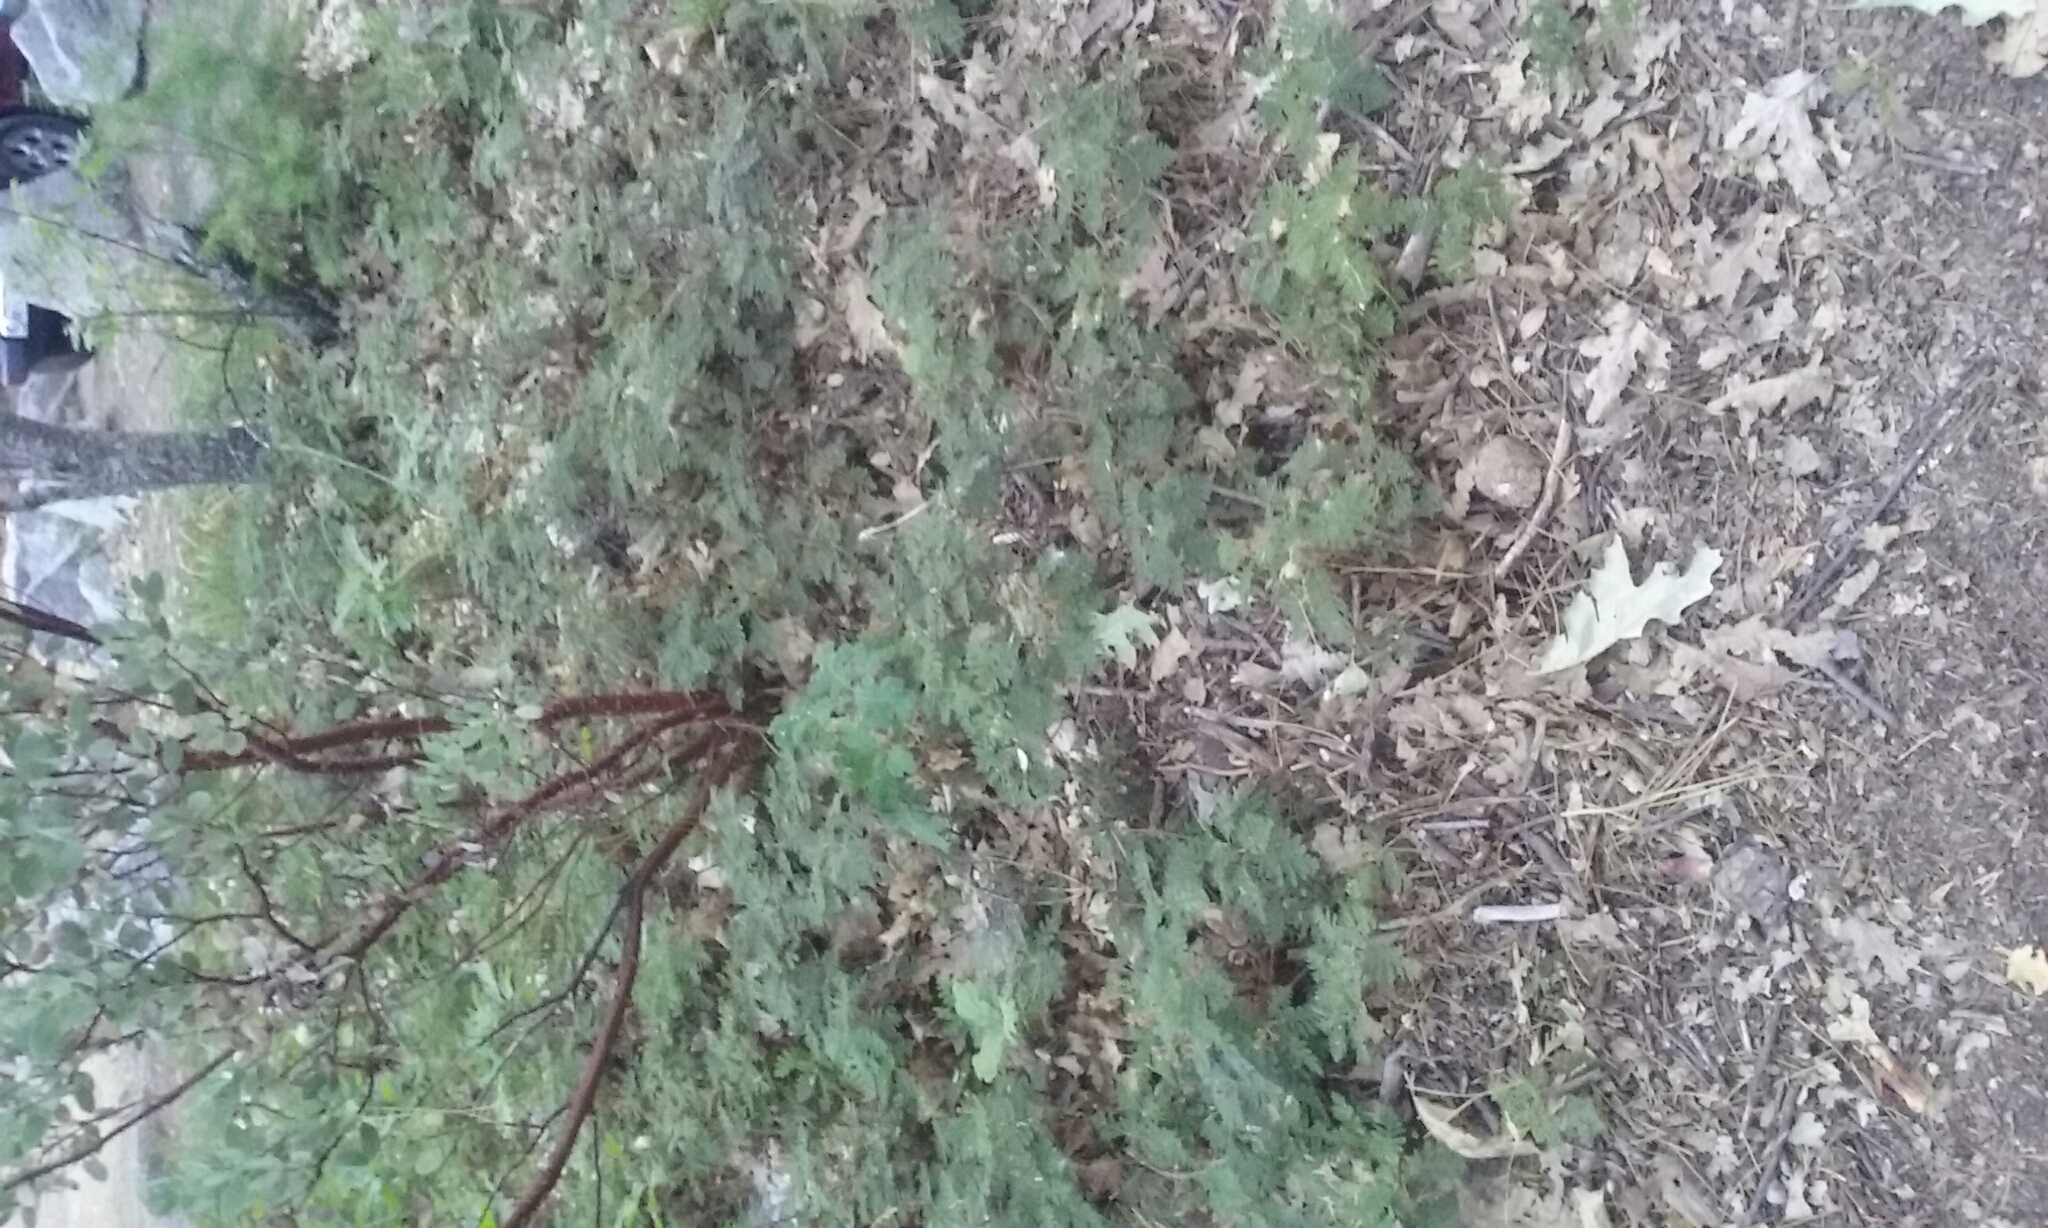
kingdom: Plantae
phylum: Tracheophyta
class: Magnoliopsida
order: Rosales
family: Rosaceae
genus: Chamaebatia
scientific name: Chamaebatia foliolosa
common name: Mountain misery
